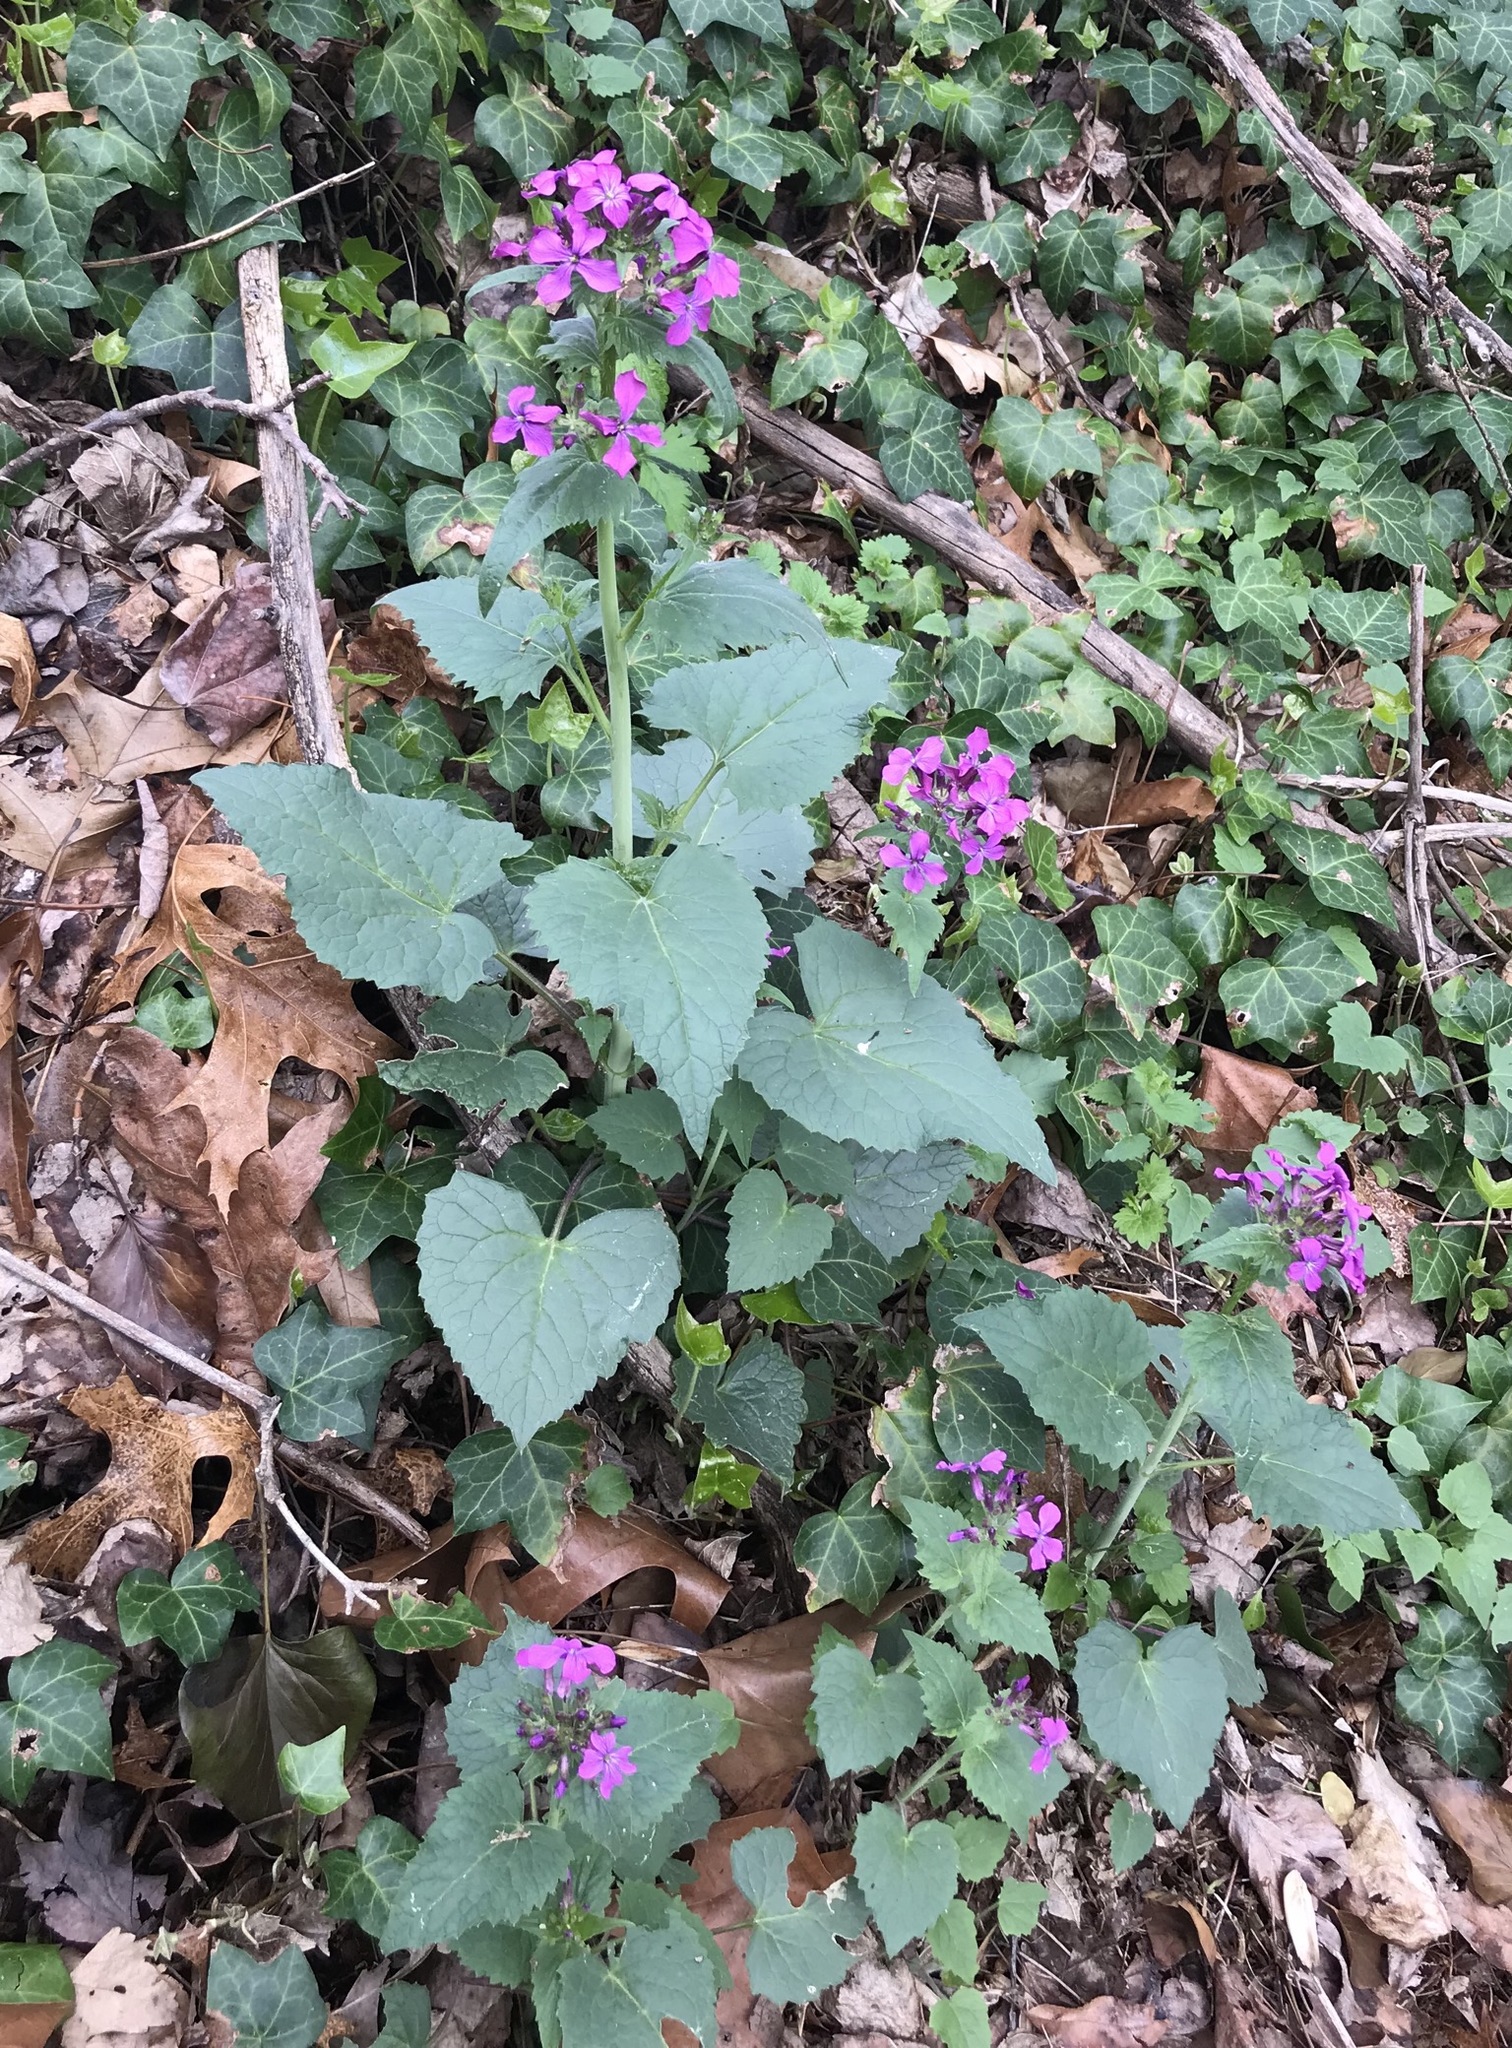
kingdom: Plantae
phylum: Tracheophyta
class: Magnoliopsida
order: Brassicales
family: Brassicaceae
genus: Lunaria
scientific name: Lunaria annua
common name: Honesty
